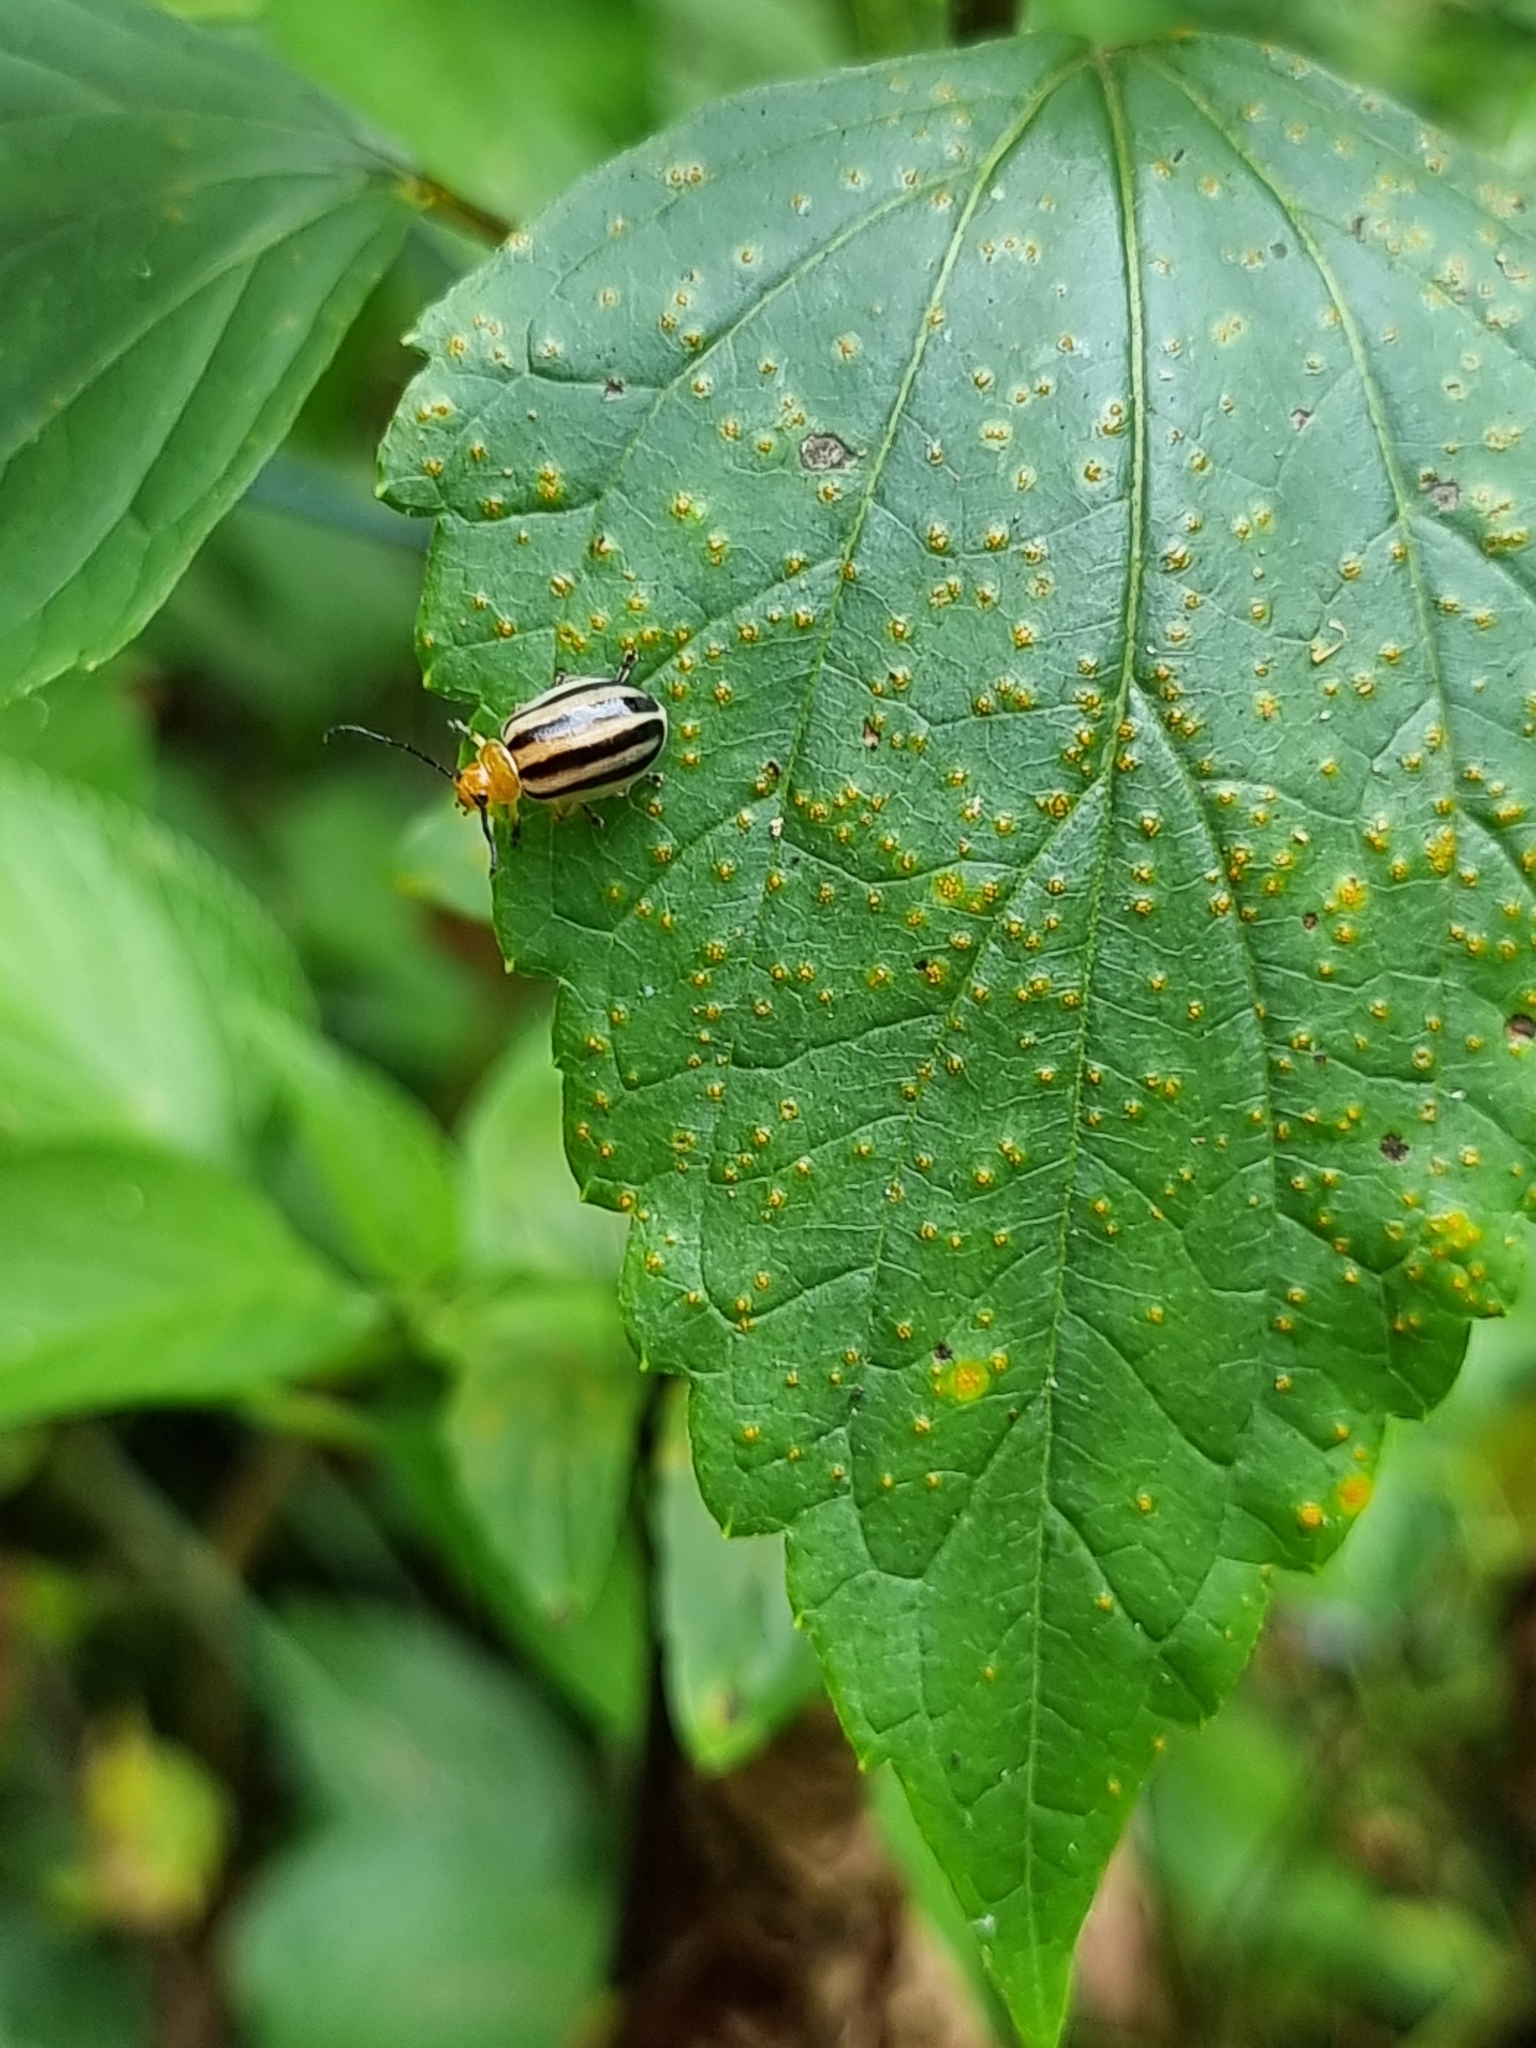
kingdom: Animalia
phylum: Arthropoda
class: Insecta
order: Coleoptera
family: Chrysomelidae
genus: Oides
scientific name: Oides
